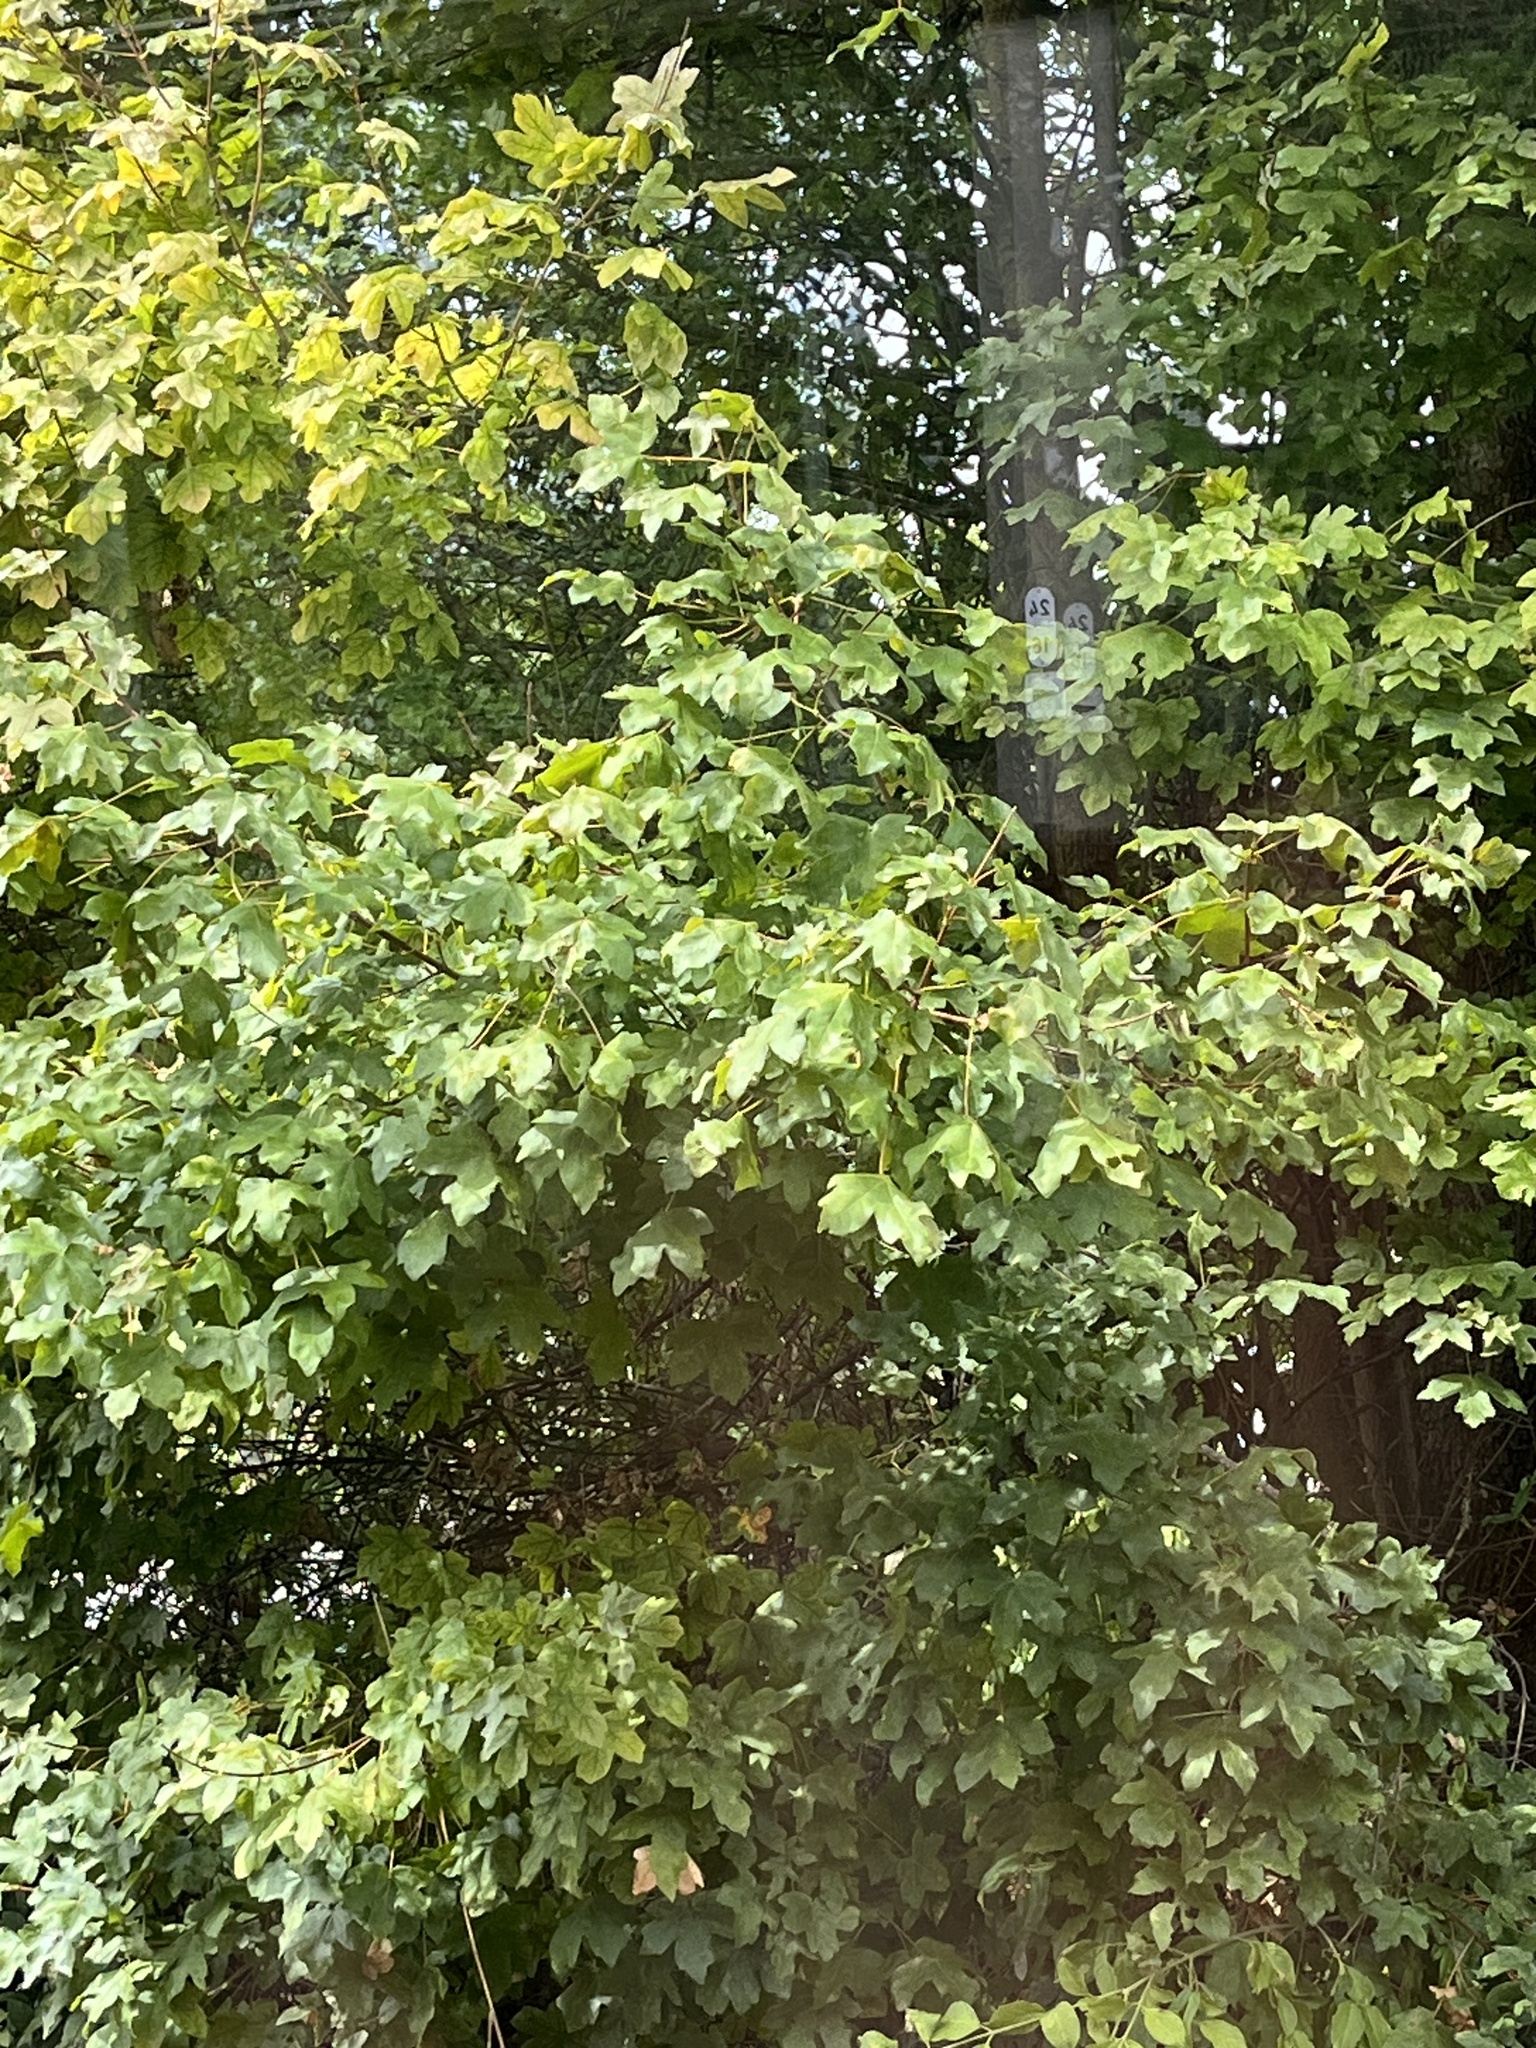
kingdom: Plantae
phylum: Tracheophyta
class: Magnoliopsida
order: Sapindales
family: Sapindaceae
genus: Acer
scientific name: Acer campestre
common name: Field maple
